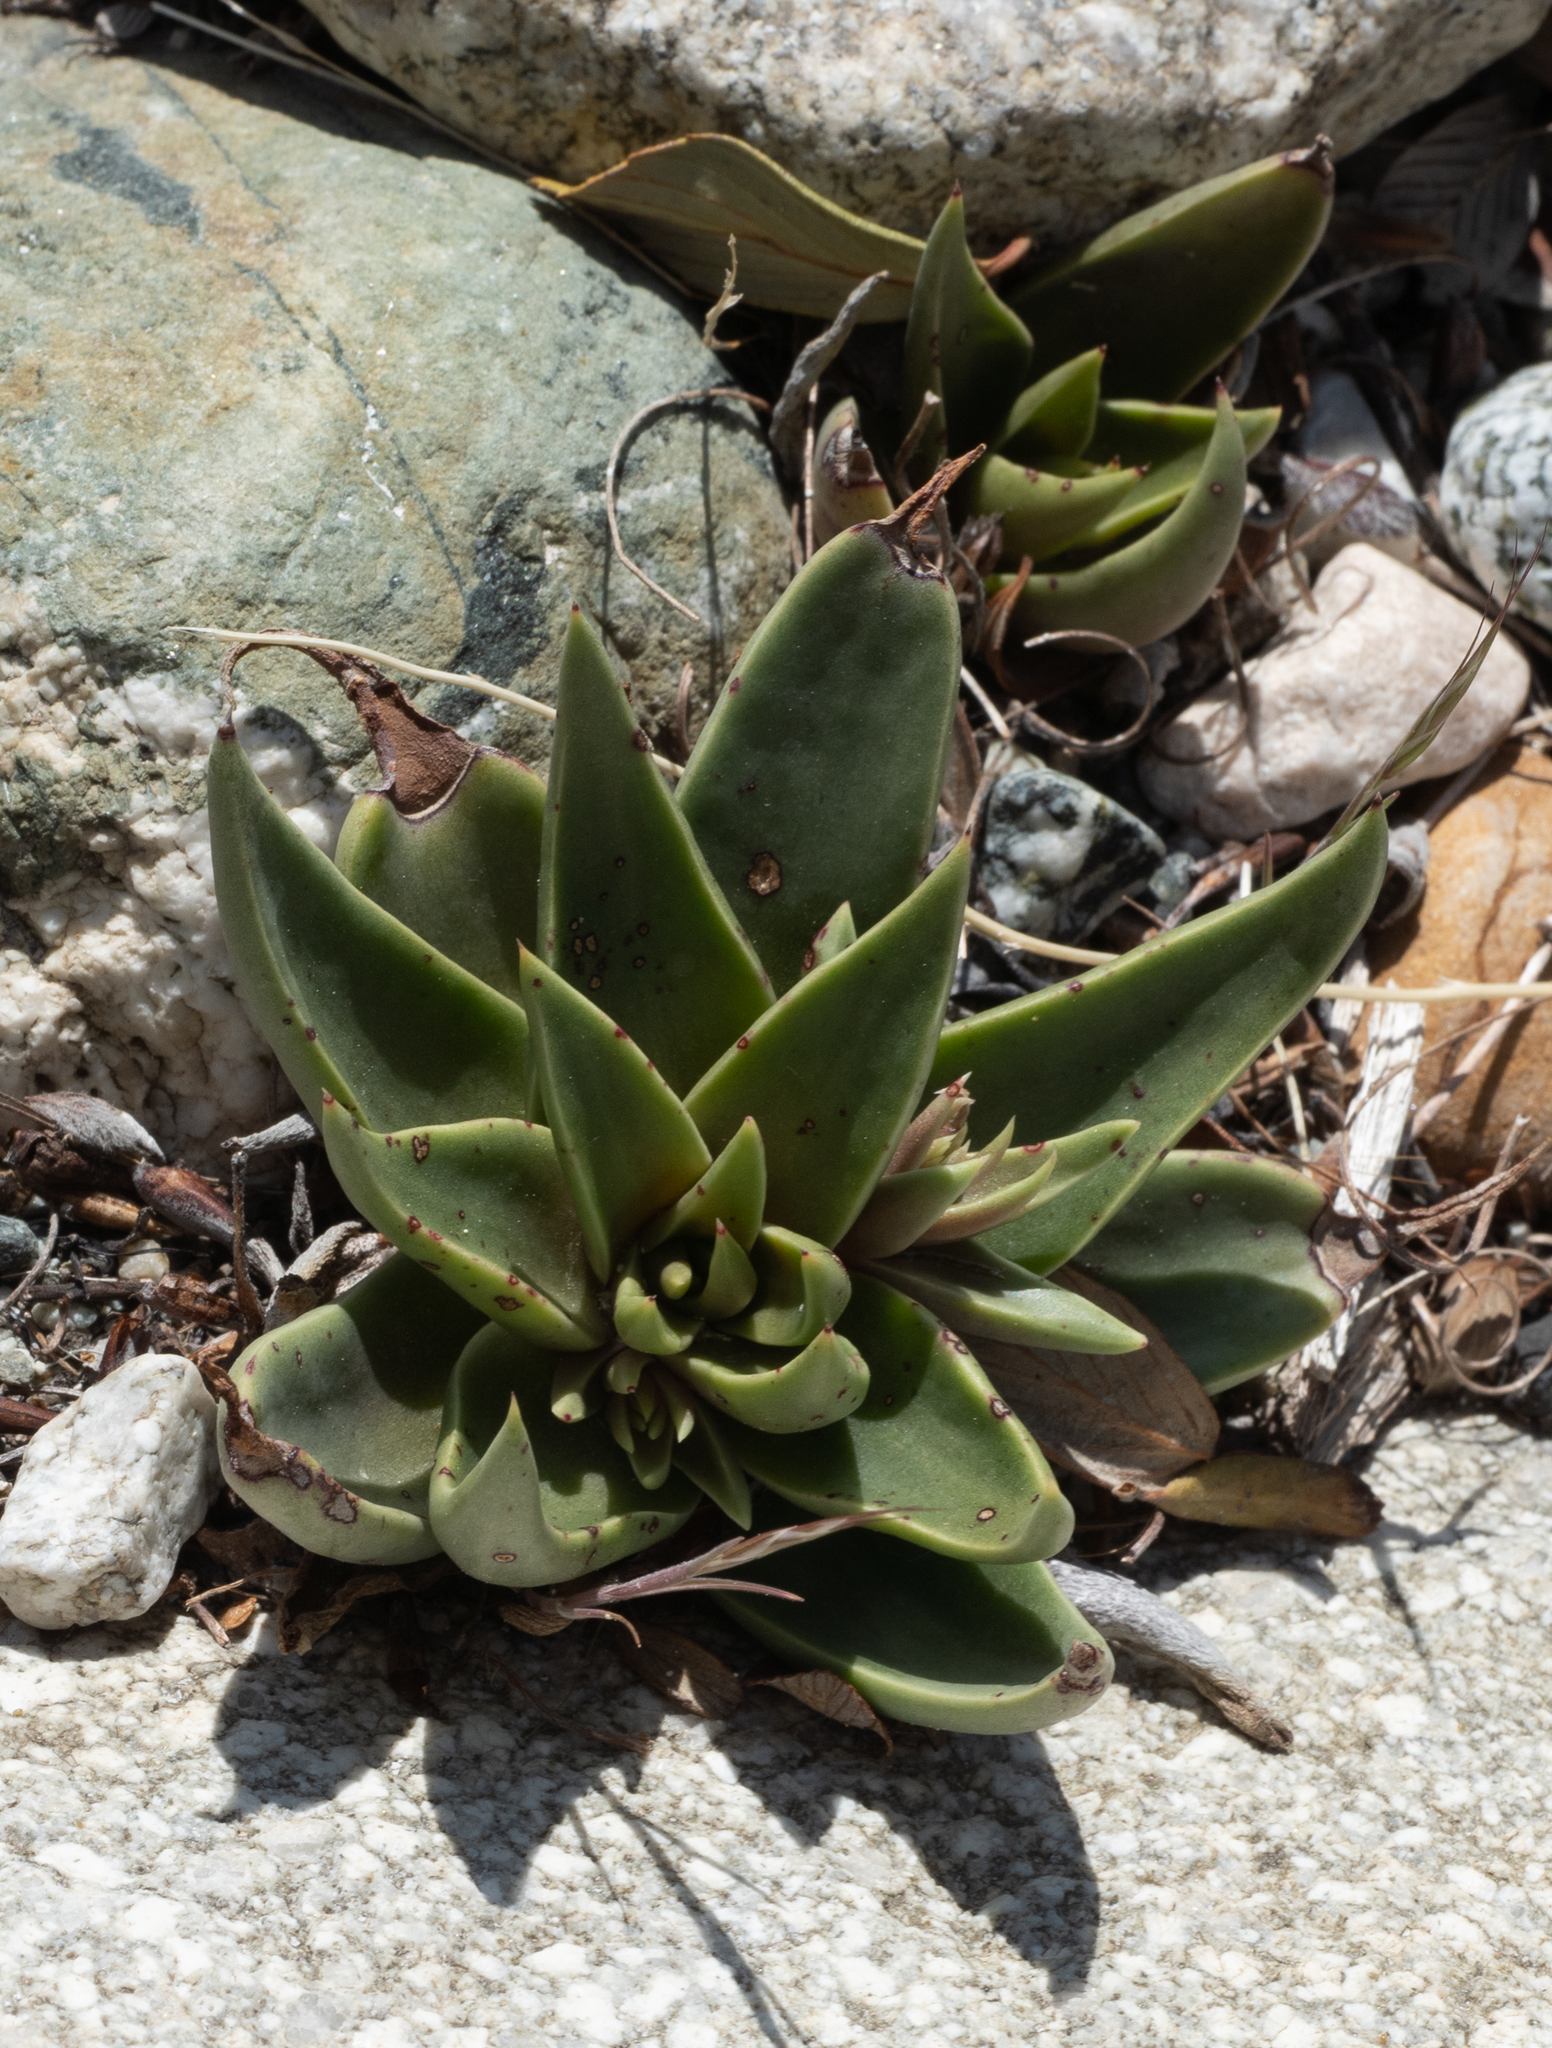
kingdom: Plantae
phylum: Tracheophyta
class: Magnoliopsida
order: Saxifragales
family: Crassulaceae
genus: Dudleya
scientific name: Dudleya lanceolata
